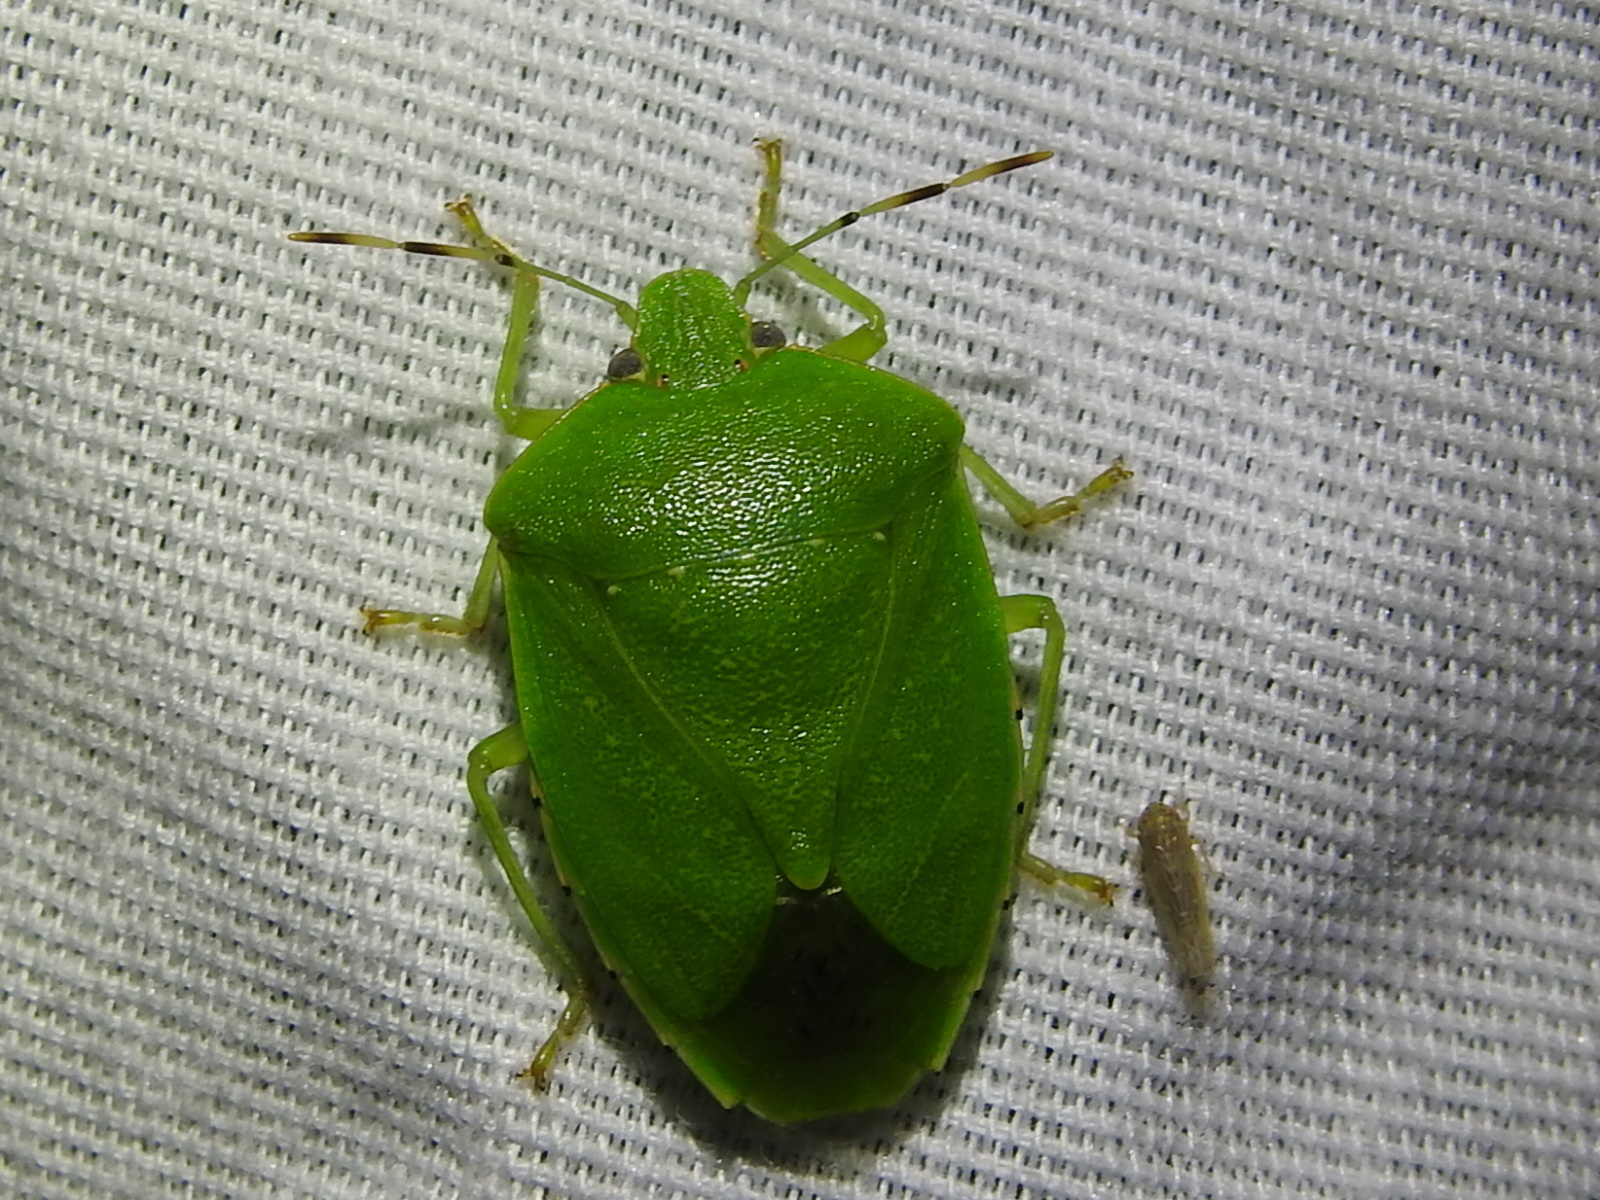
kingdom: Animalia
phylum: Arthropoda
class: Insecta
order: Hemiptera
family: Pentatomidae
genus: Chinavia
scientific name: Chinavia hilaris
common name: Green stink bug
